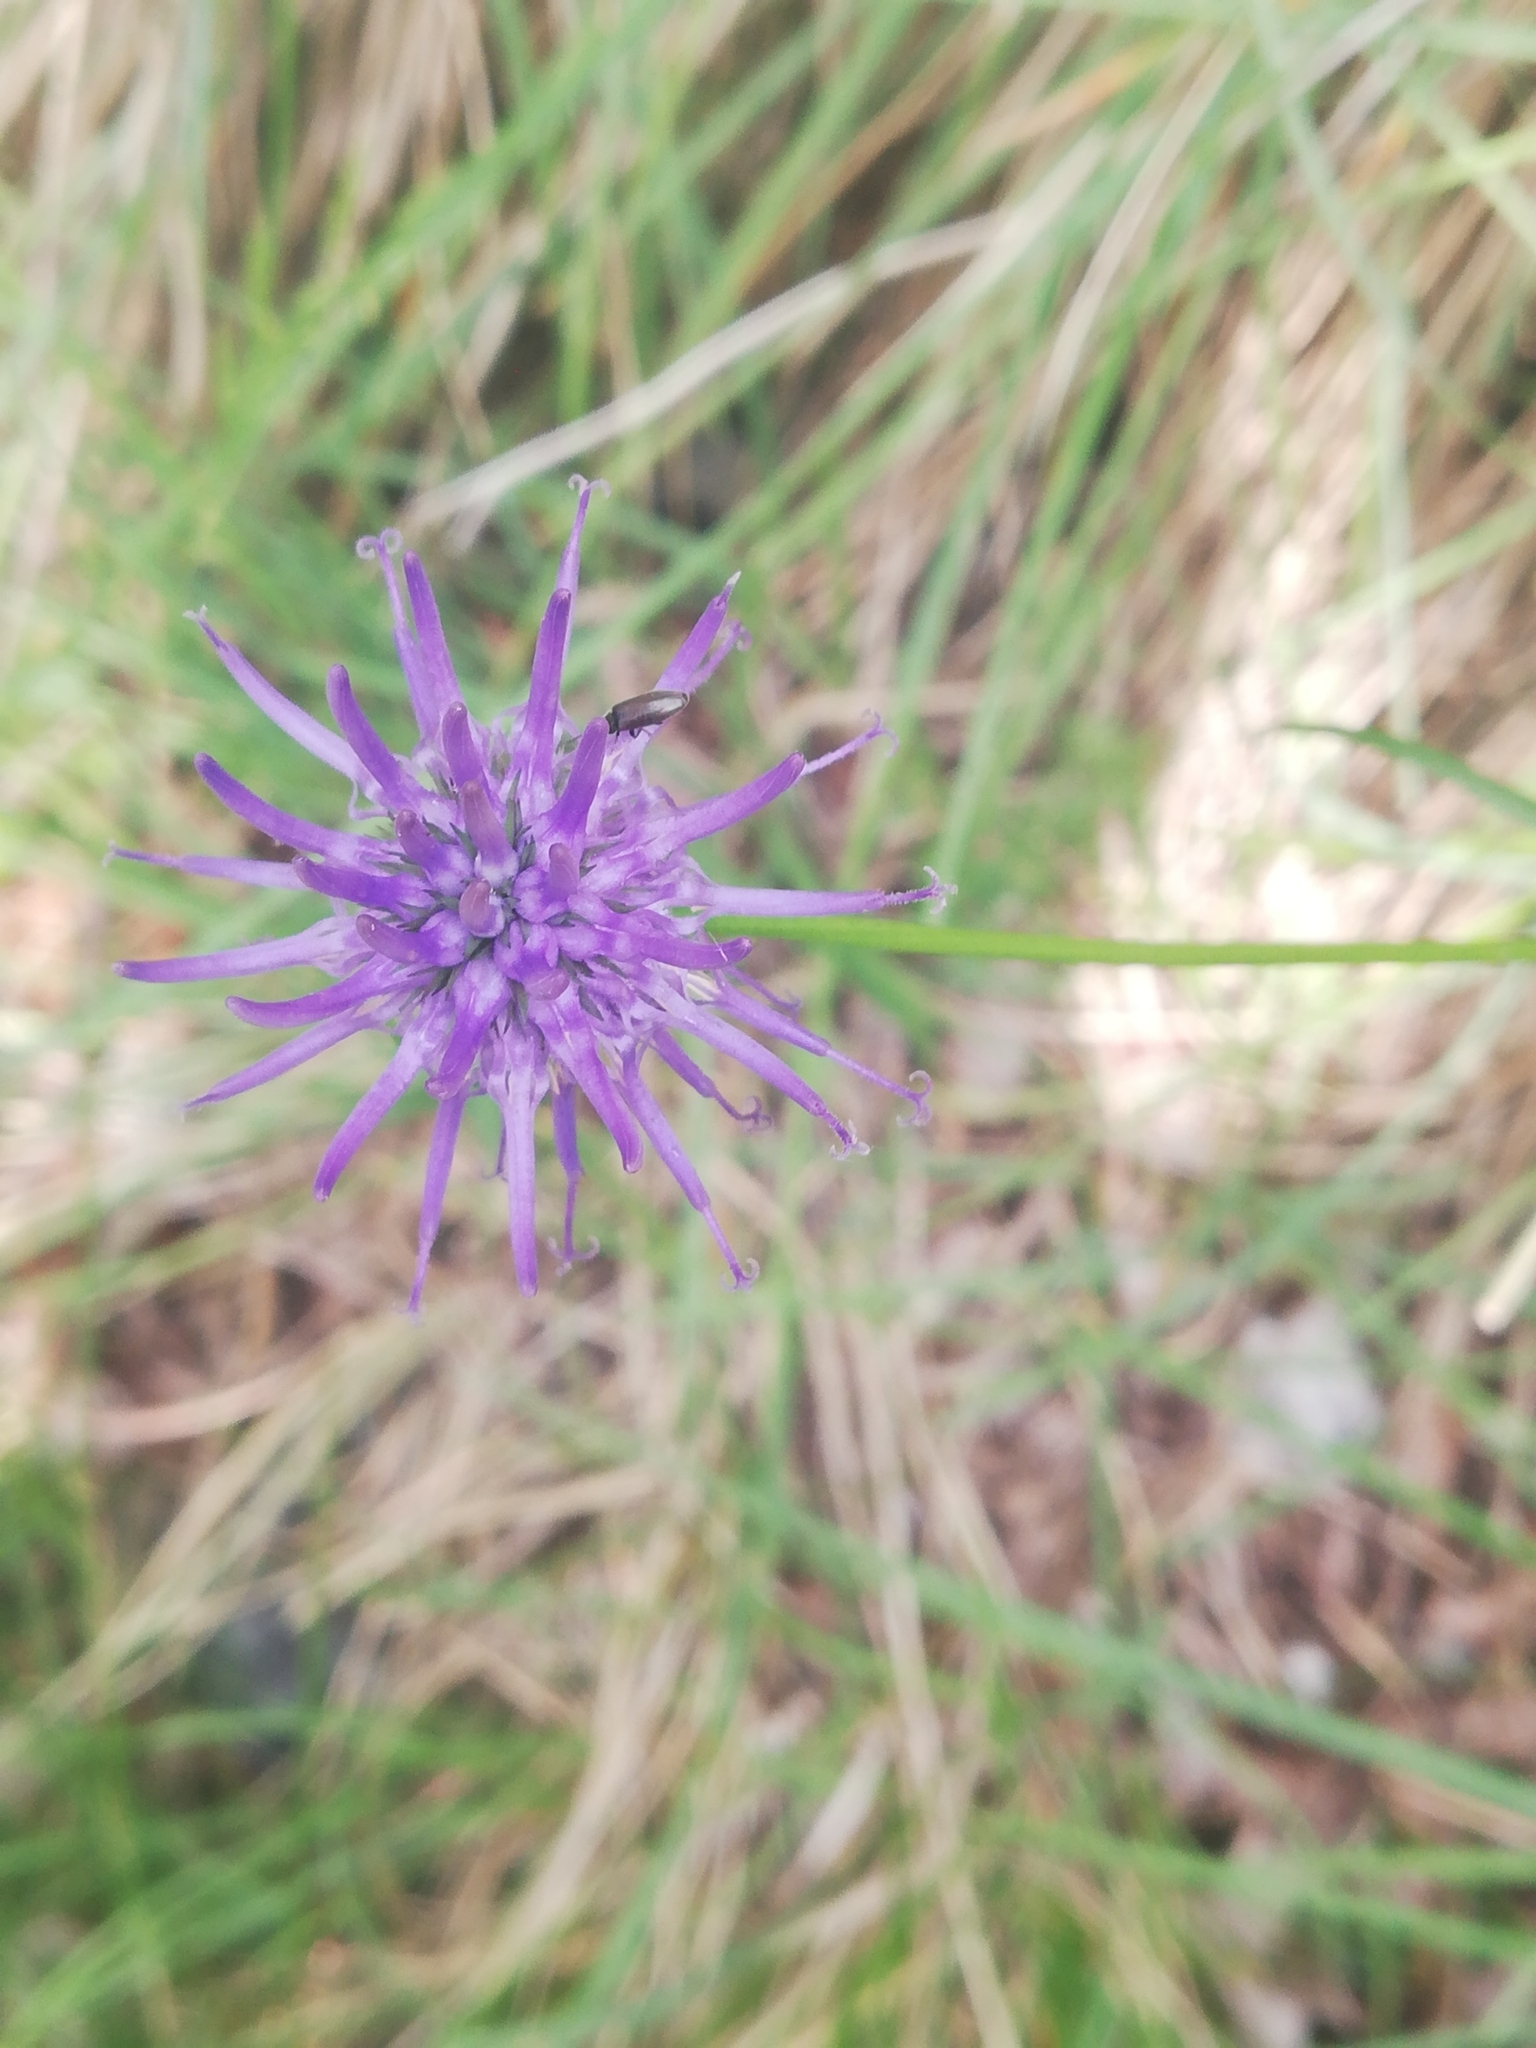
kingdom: Plantae
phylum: Tracheophyta
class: Magnoliopsida
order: Asterales
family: Campanulaceae
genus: Phyteuma
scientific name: Phyteuma scheuchzeri
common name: Oxford rampion
